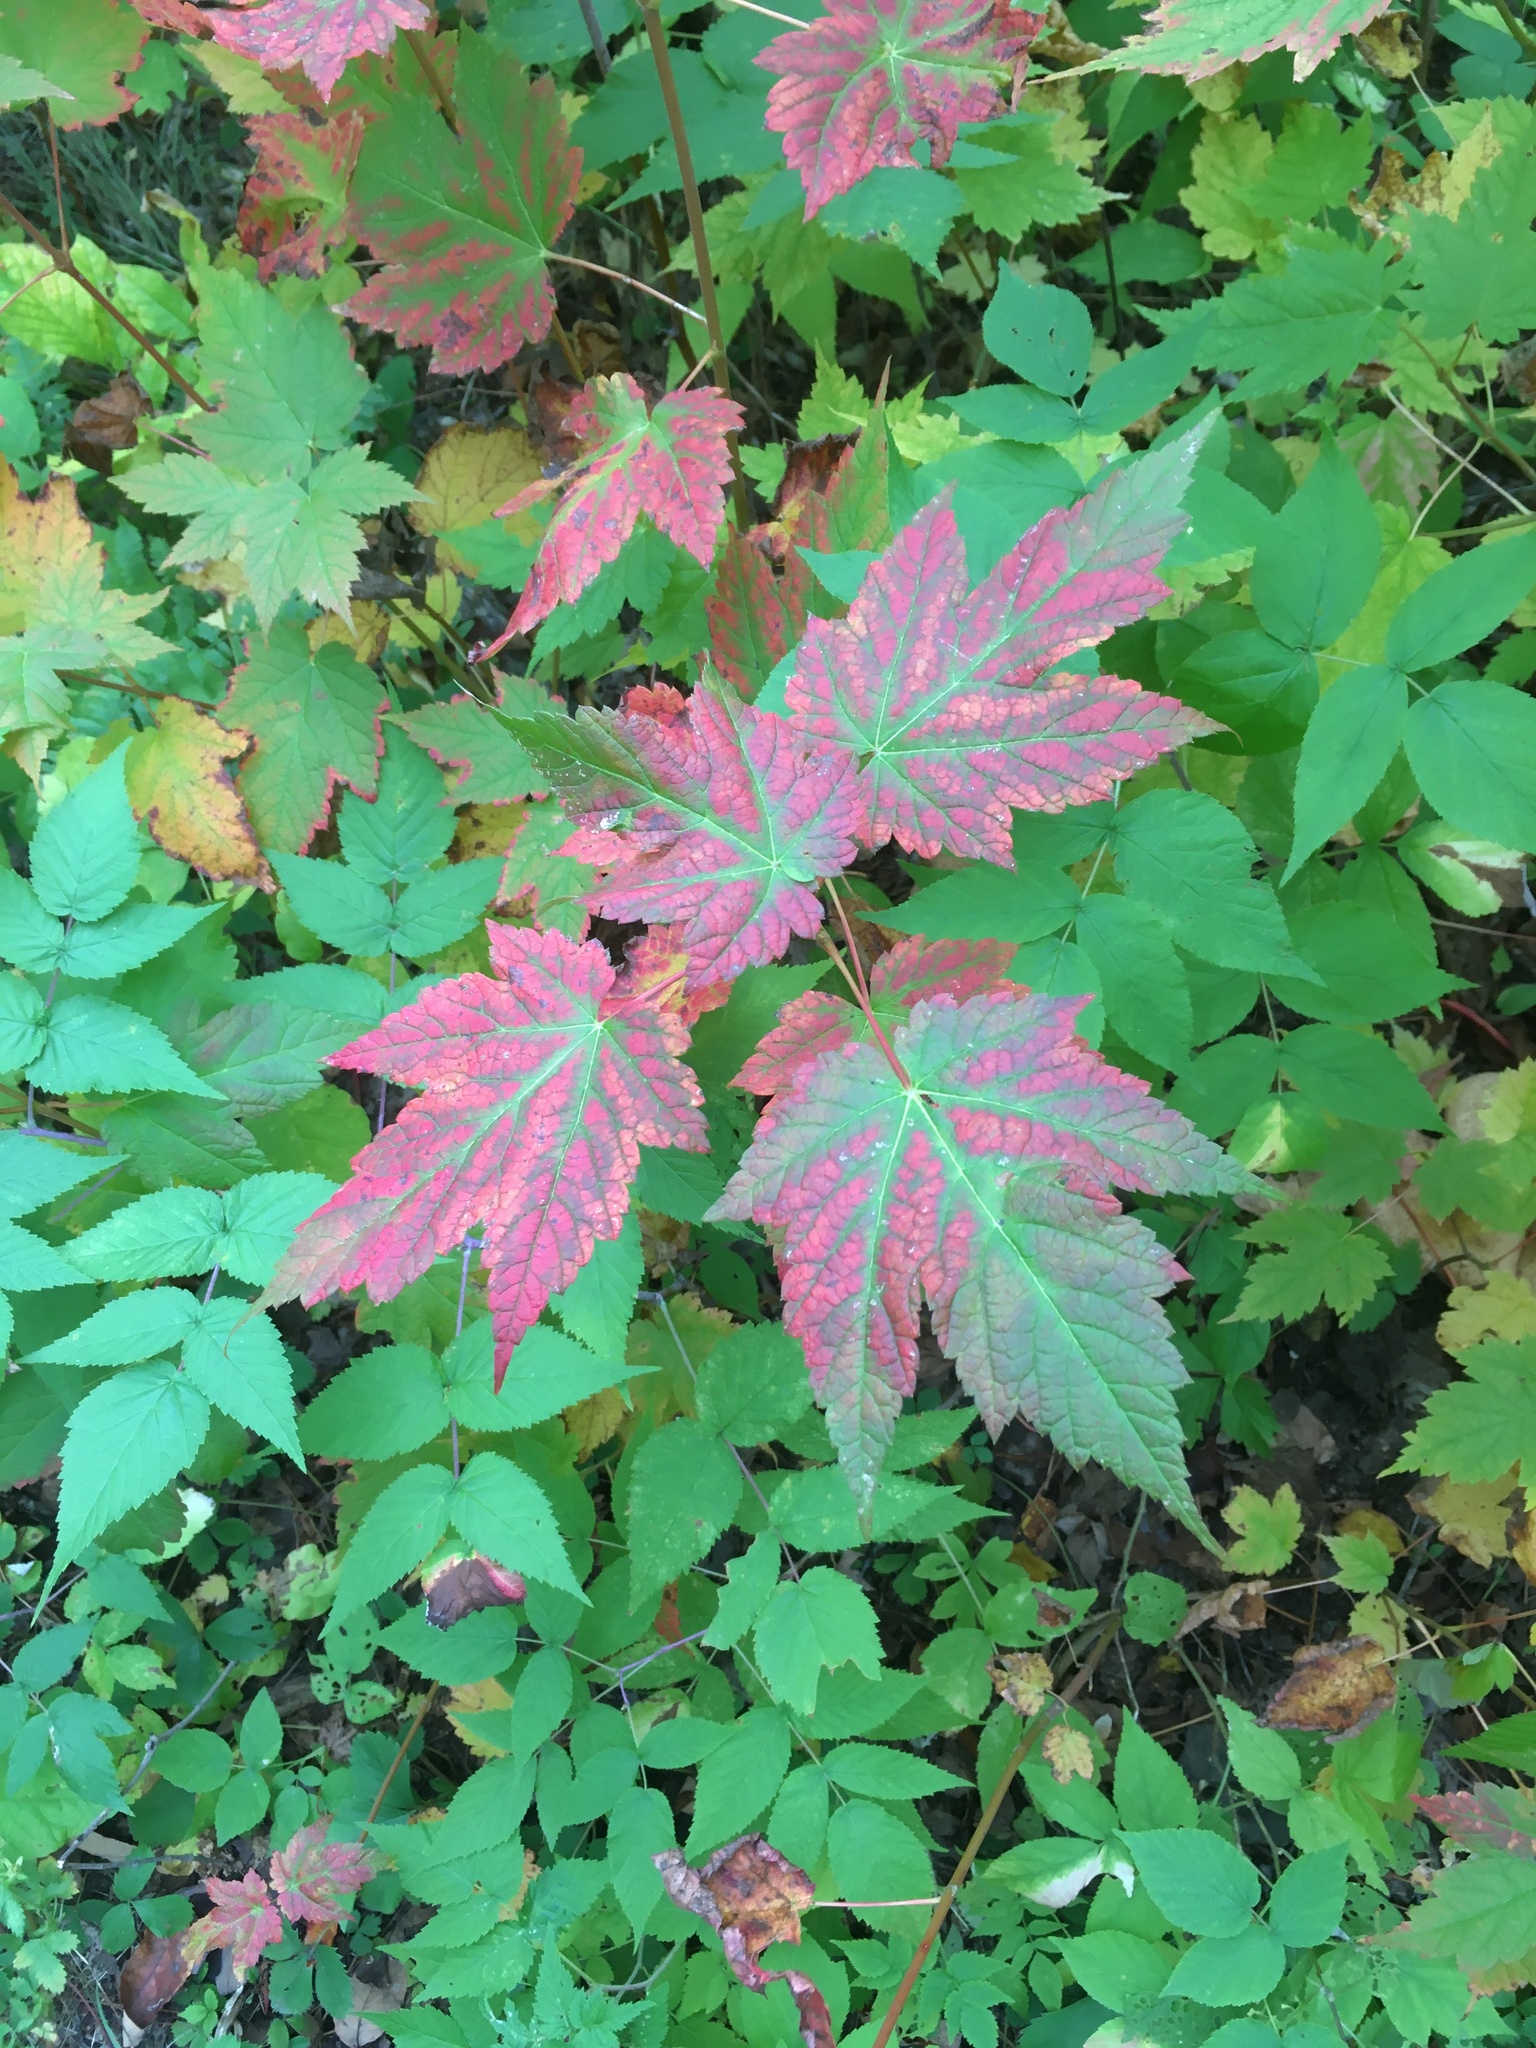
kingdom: Plantae
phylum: Tracheophyta
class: Magnoliopsida
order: Sapindales
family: Sapindaceae
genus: Acer
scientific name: Acer spicatum
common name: Mountain maple
